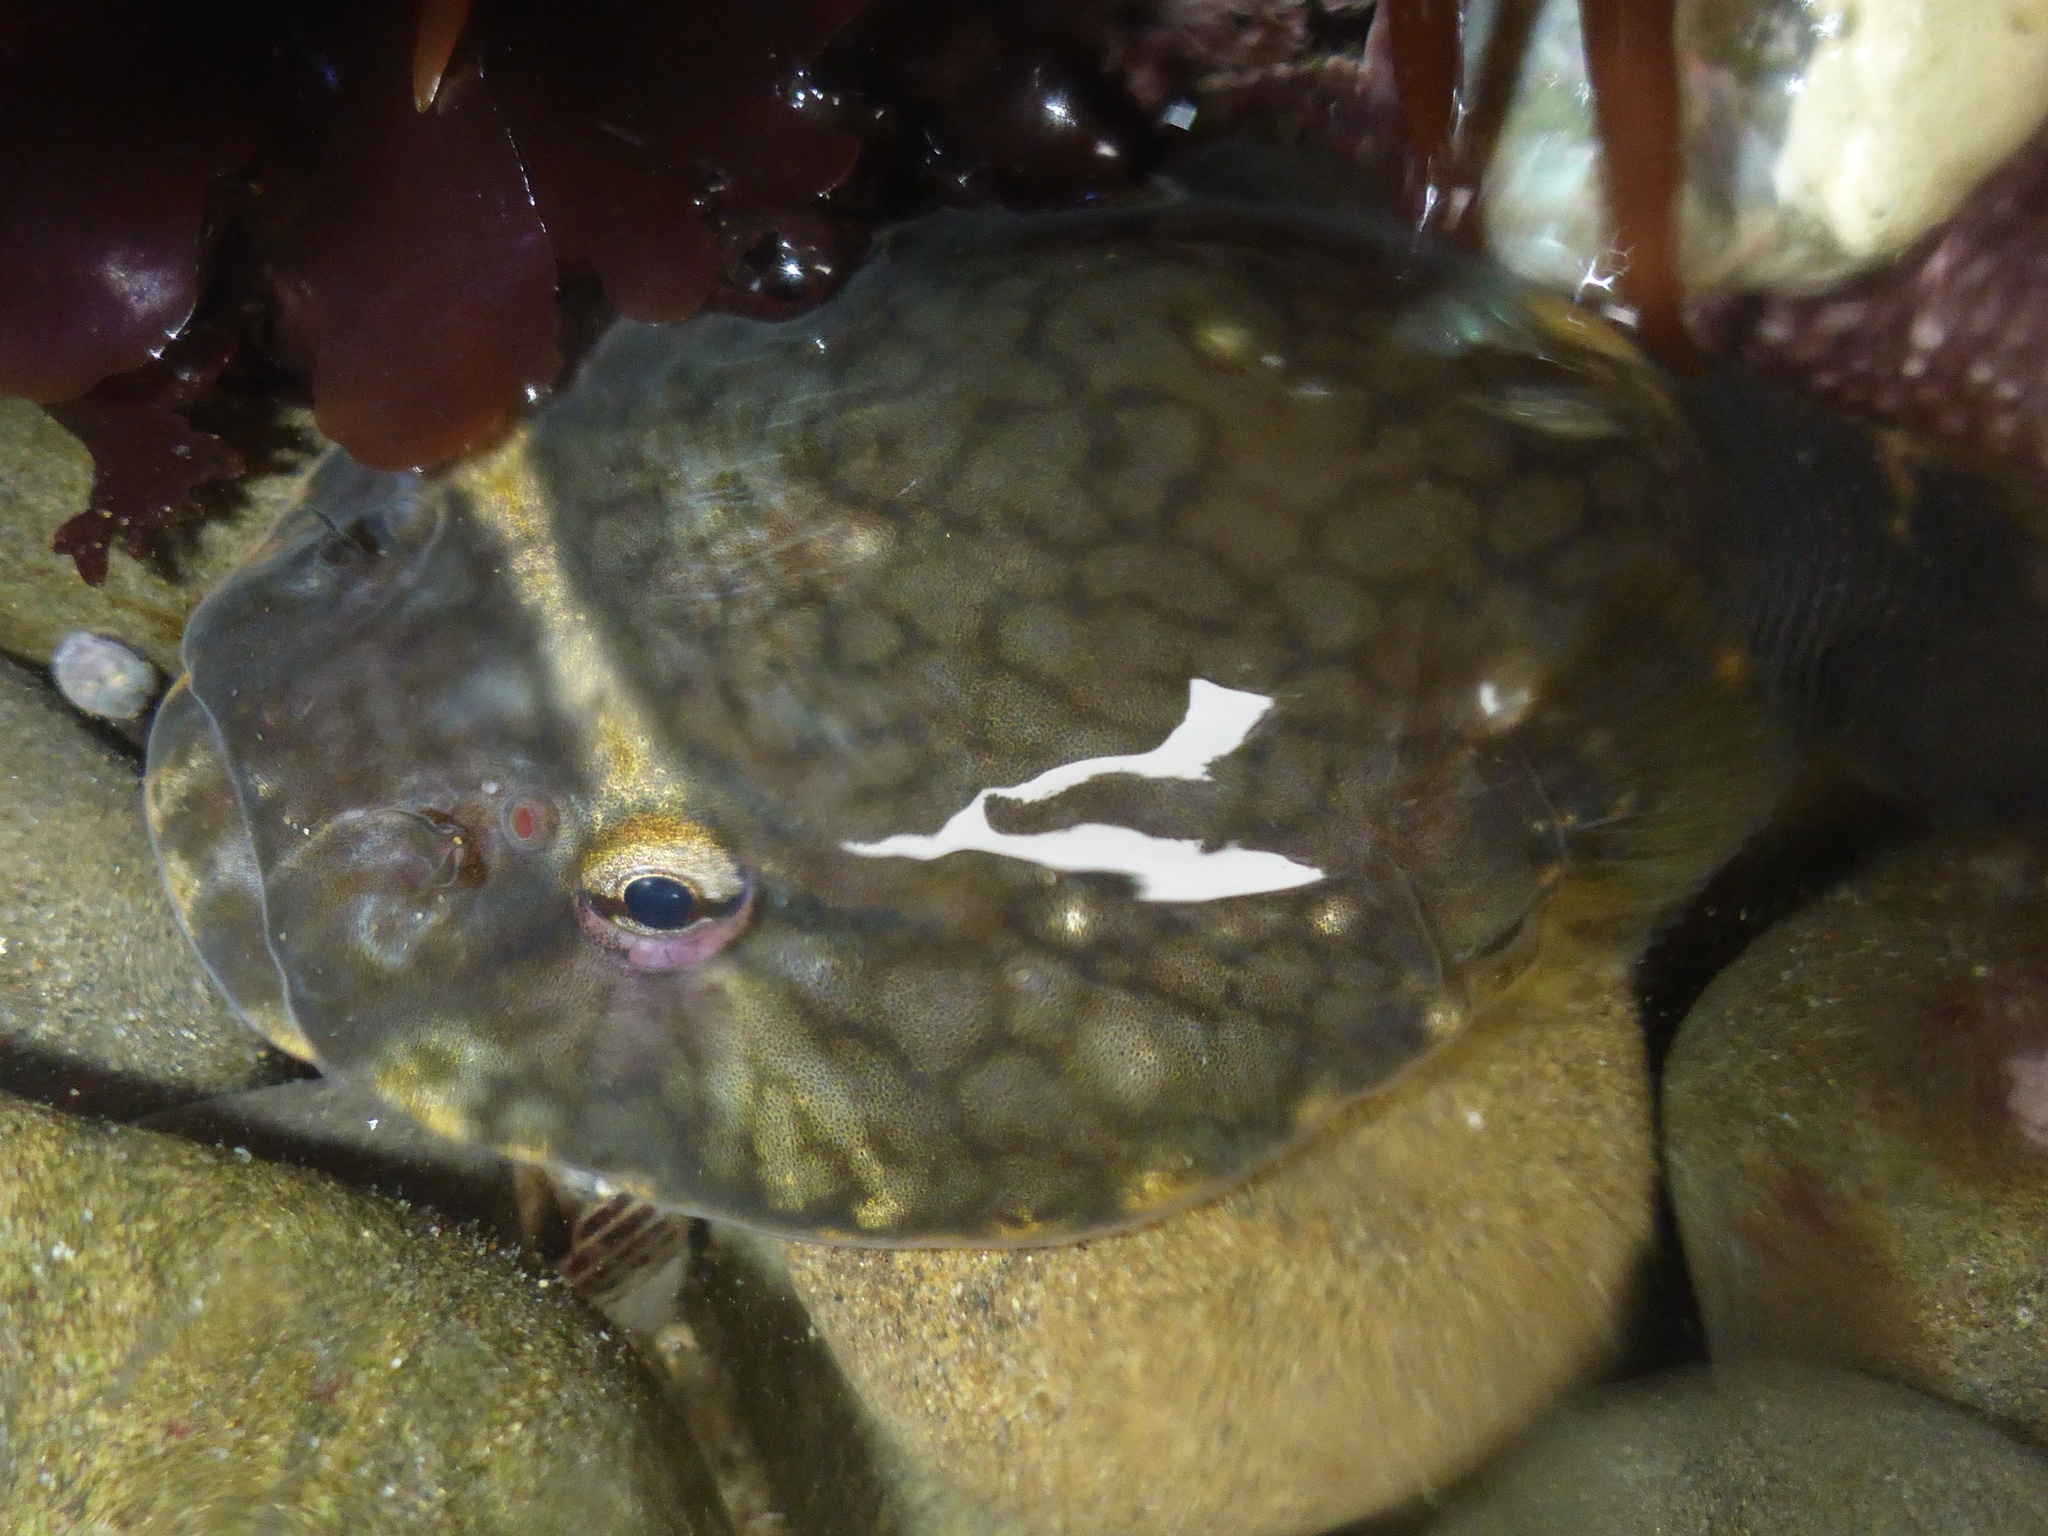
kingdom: Animalia
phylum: Chordata
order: Gobiesociformes
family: Gobiesocidae
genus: Gobiesox
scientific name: Gobiesox maeandricus
